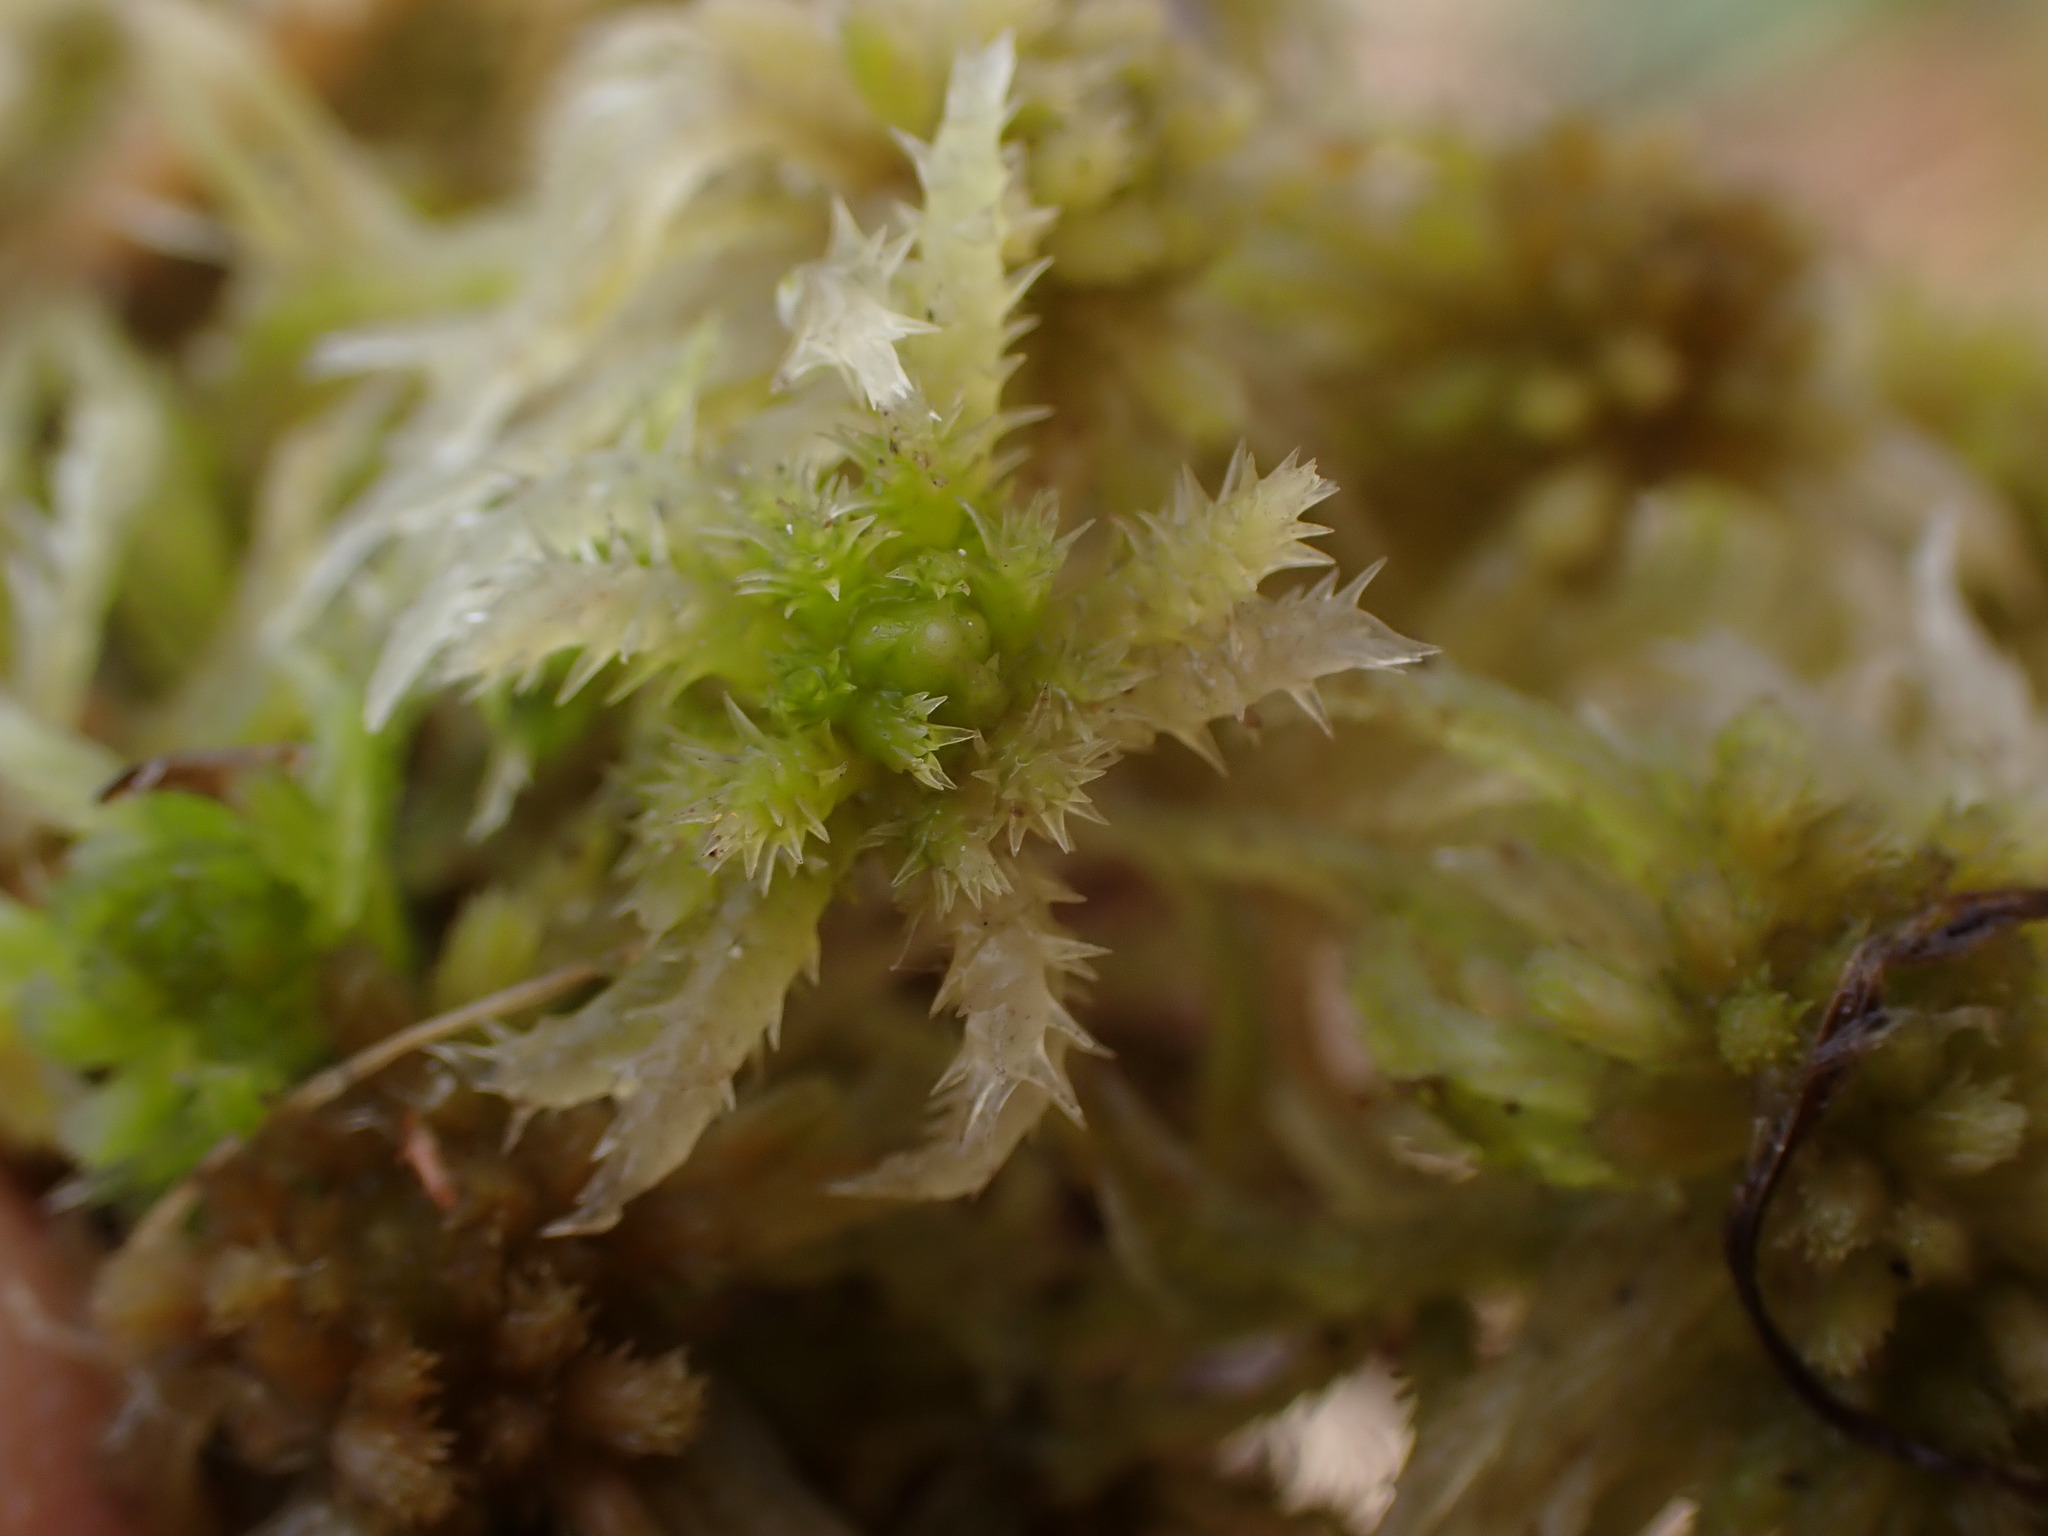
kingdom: Plantae
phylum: Bryophyta
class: Sphagnopsida
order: Sphagnales
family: Sphagnaceae
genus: Sphagnum
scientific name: Sphagnum squarrosum
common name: Shaggy peat moss
